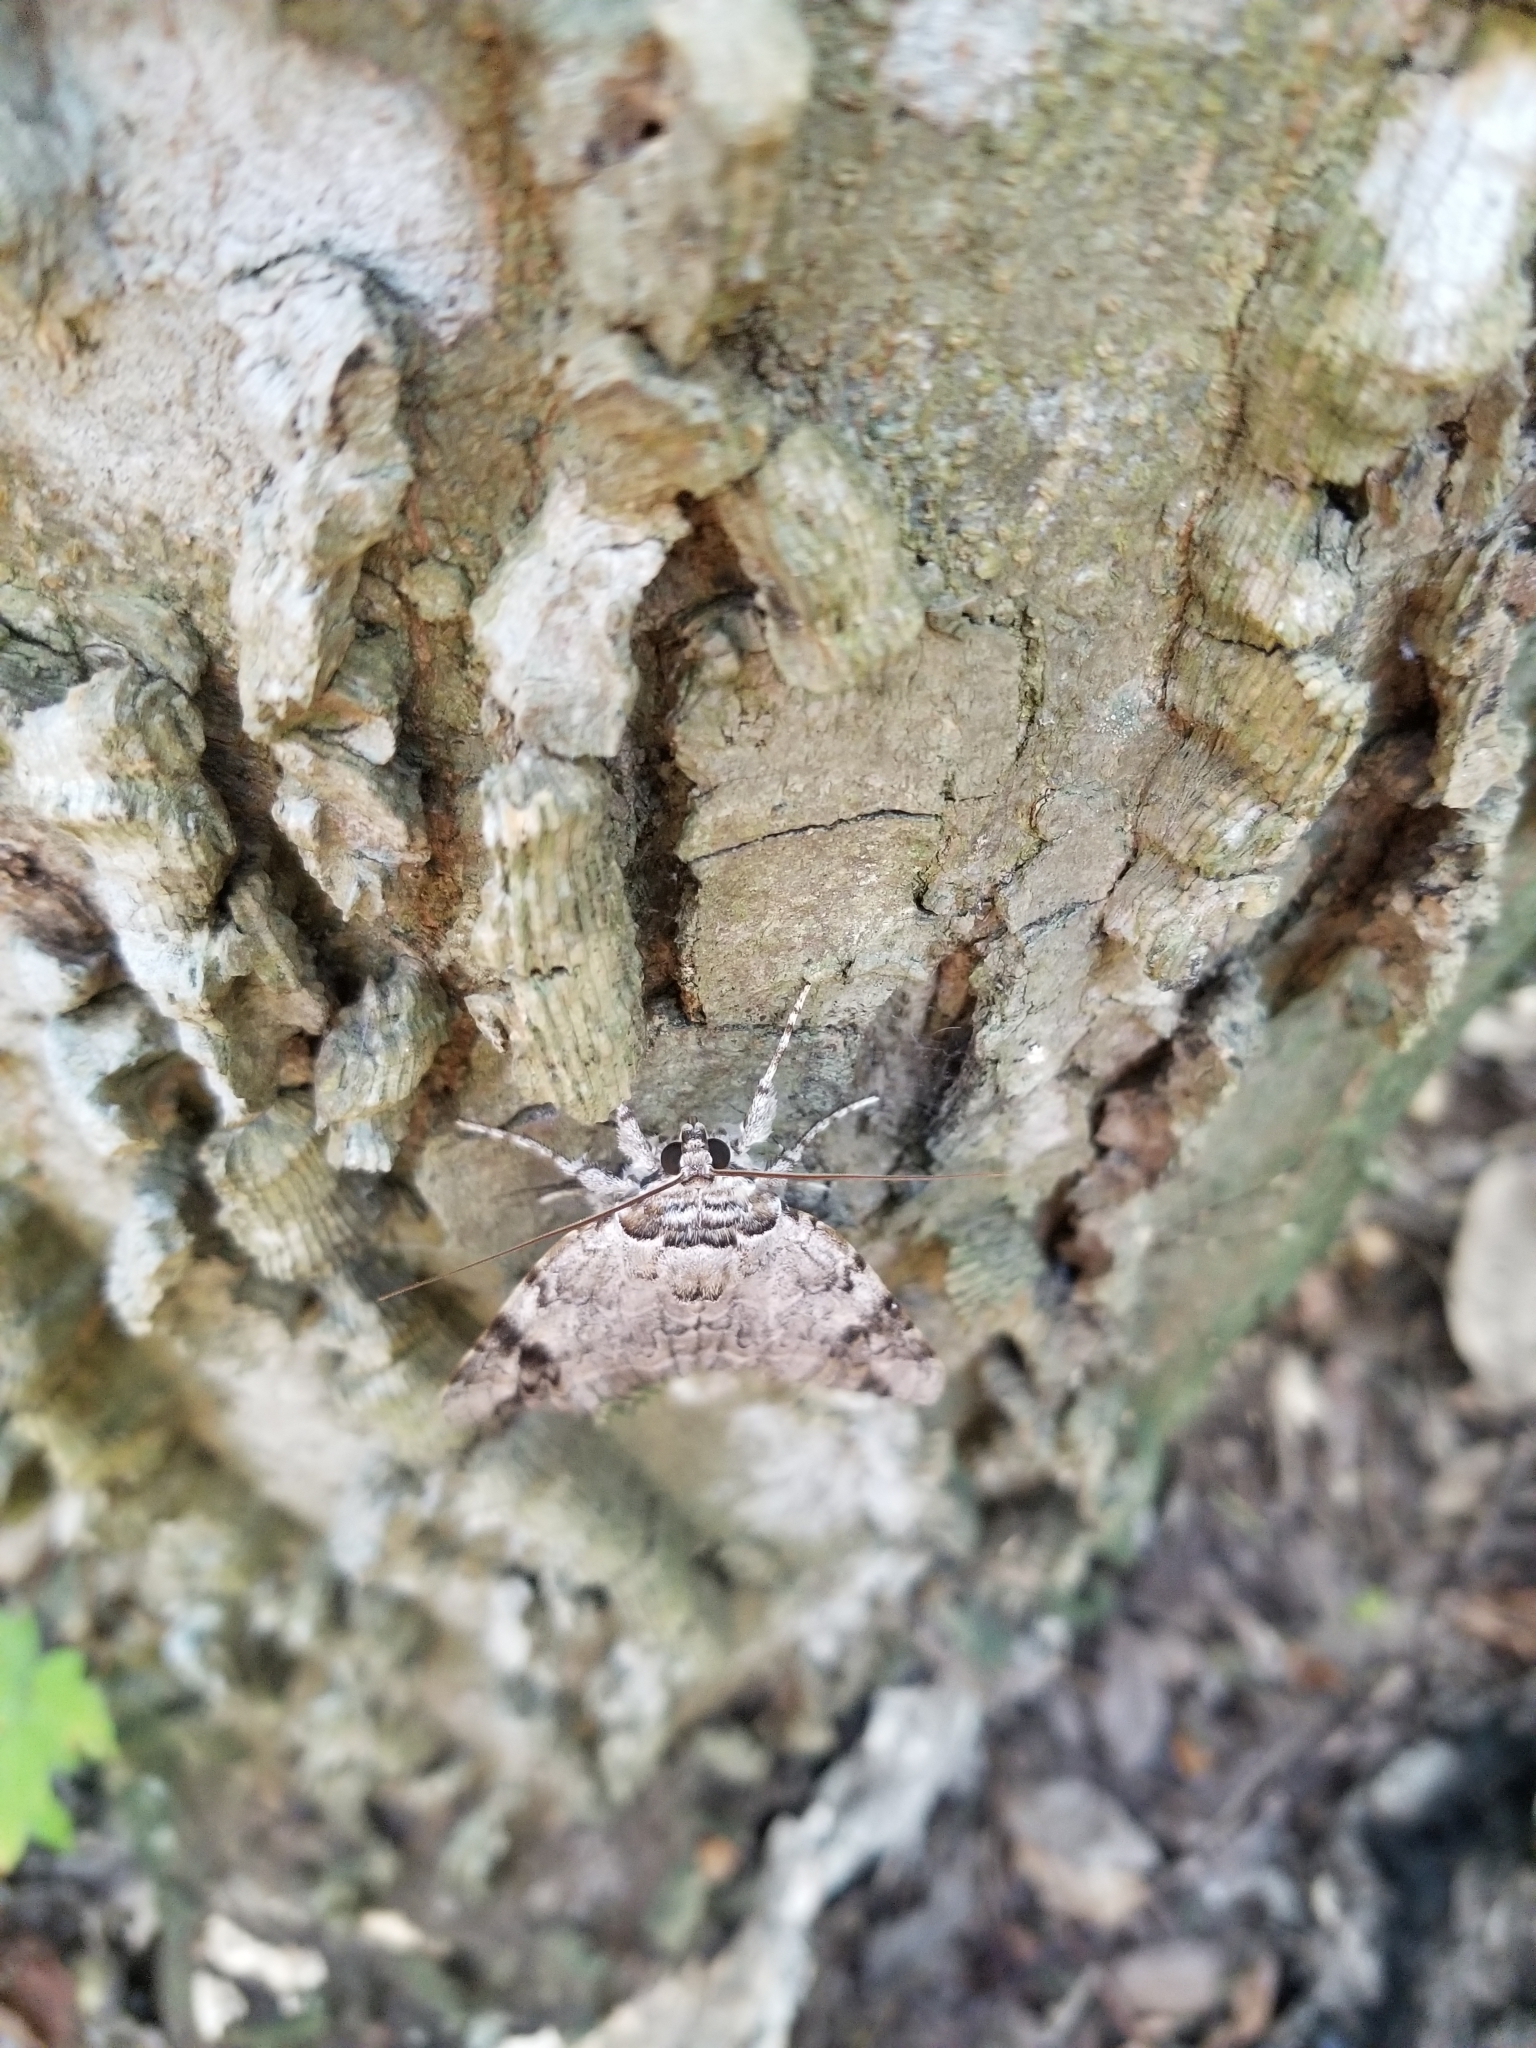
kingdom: Animalia
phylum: Arthropoda
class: Insecta
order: Lepidoptera
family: Erebidae
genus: Catocala
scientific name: Catocala maestosa
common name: Sad underwing
